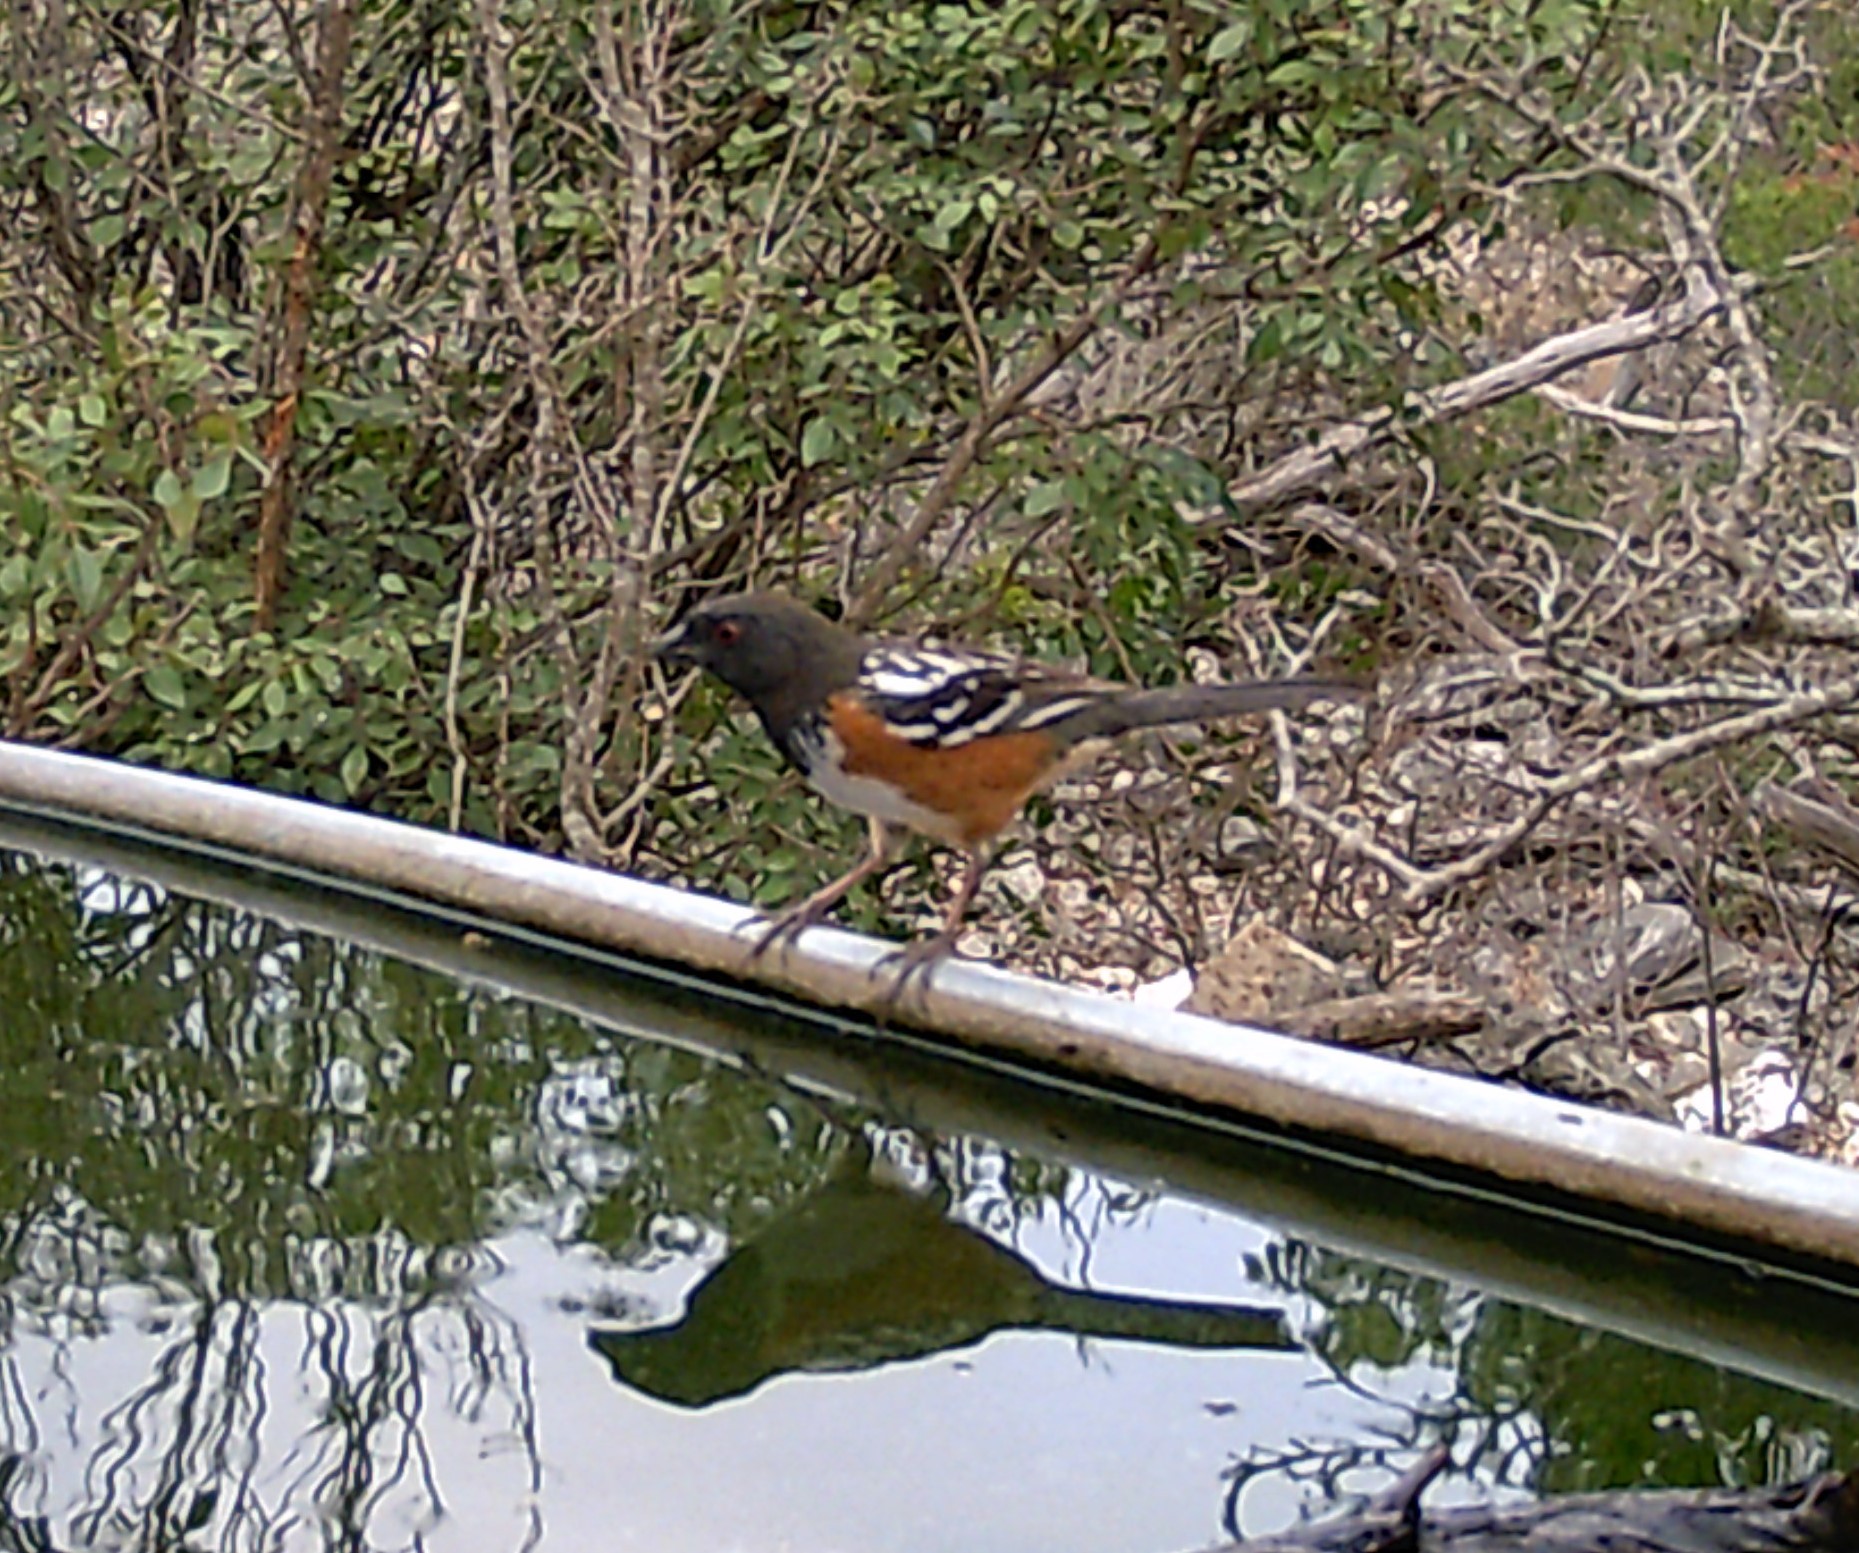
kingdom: Animalia
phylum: Chordata
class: Aves
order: Passeriformes
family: Passerellidae
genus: Pipilo
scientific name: Pipilo maculatus
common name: Spotted towhee
